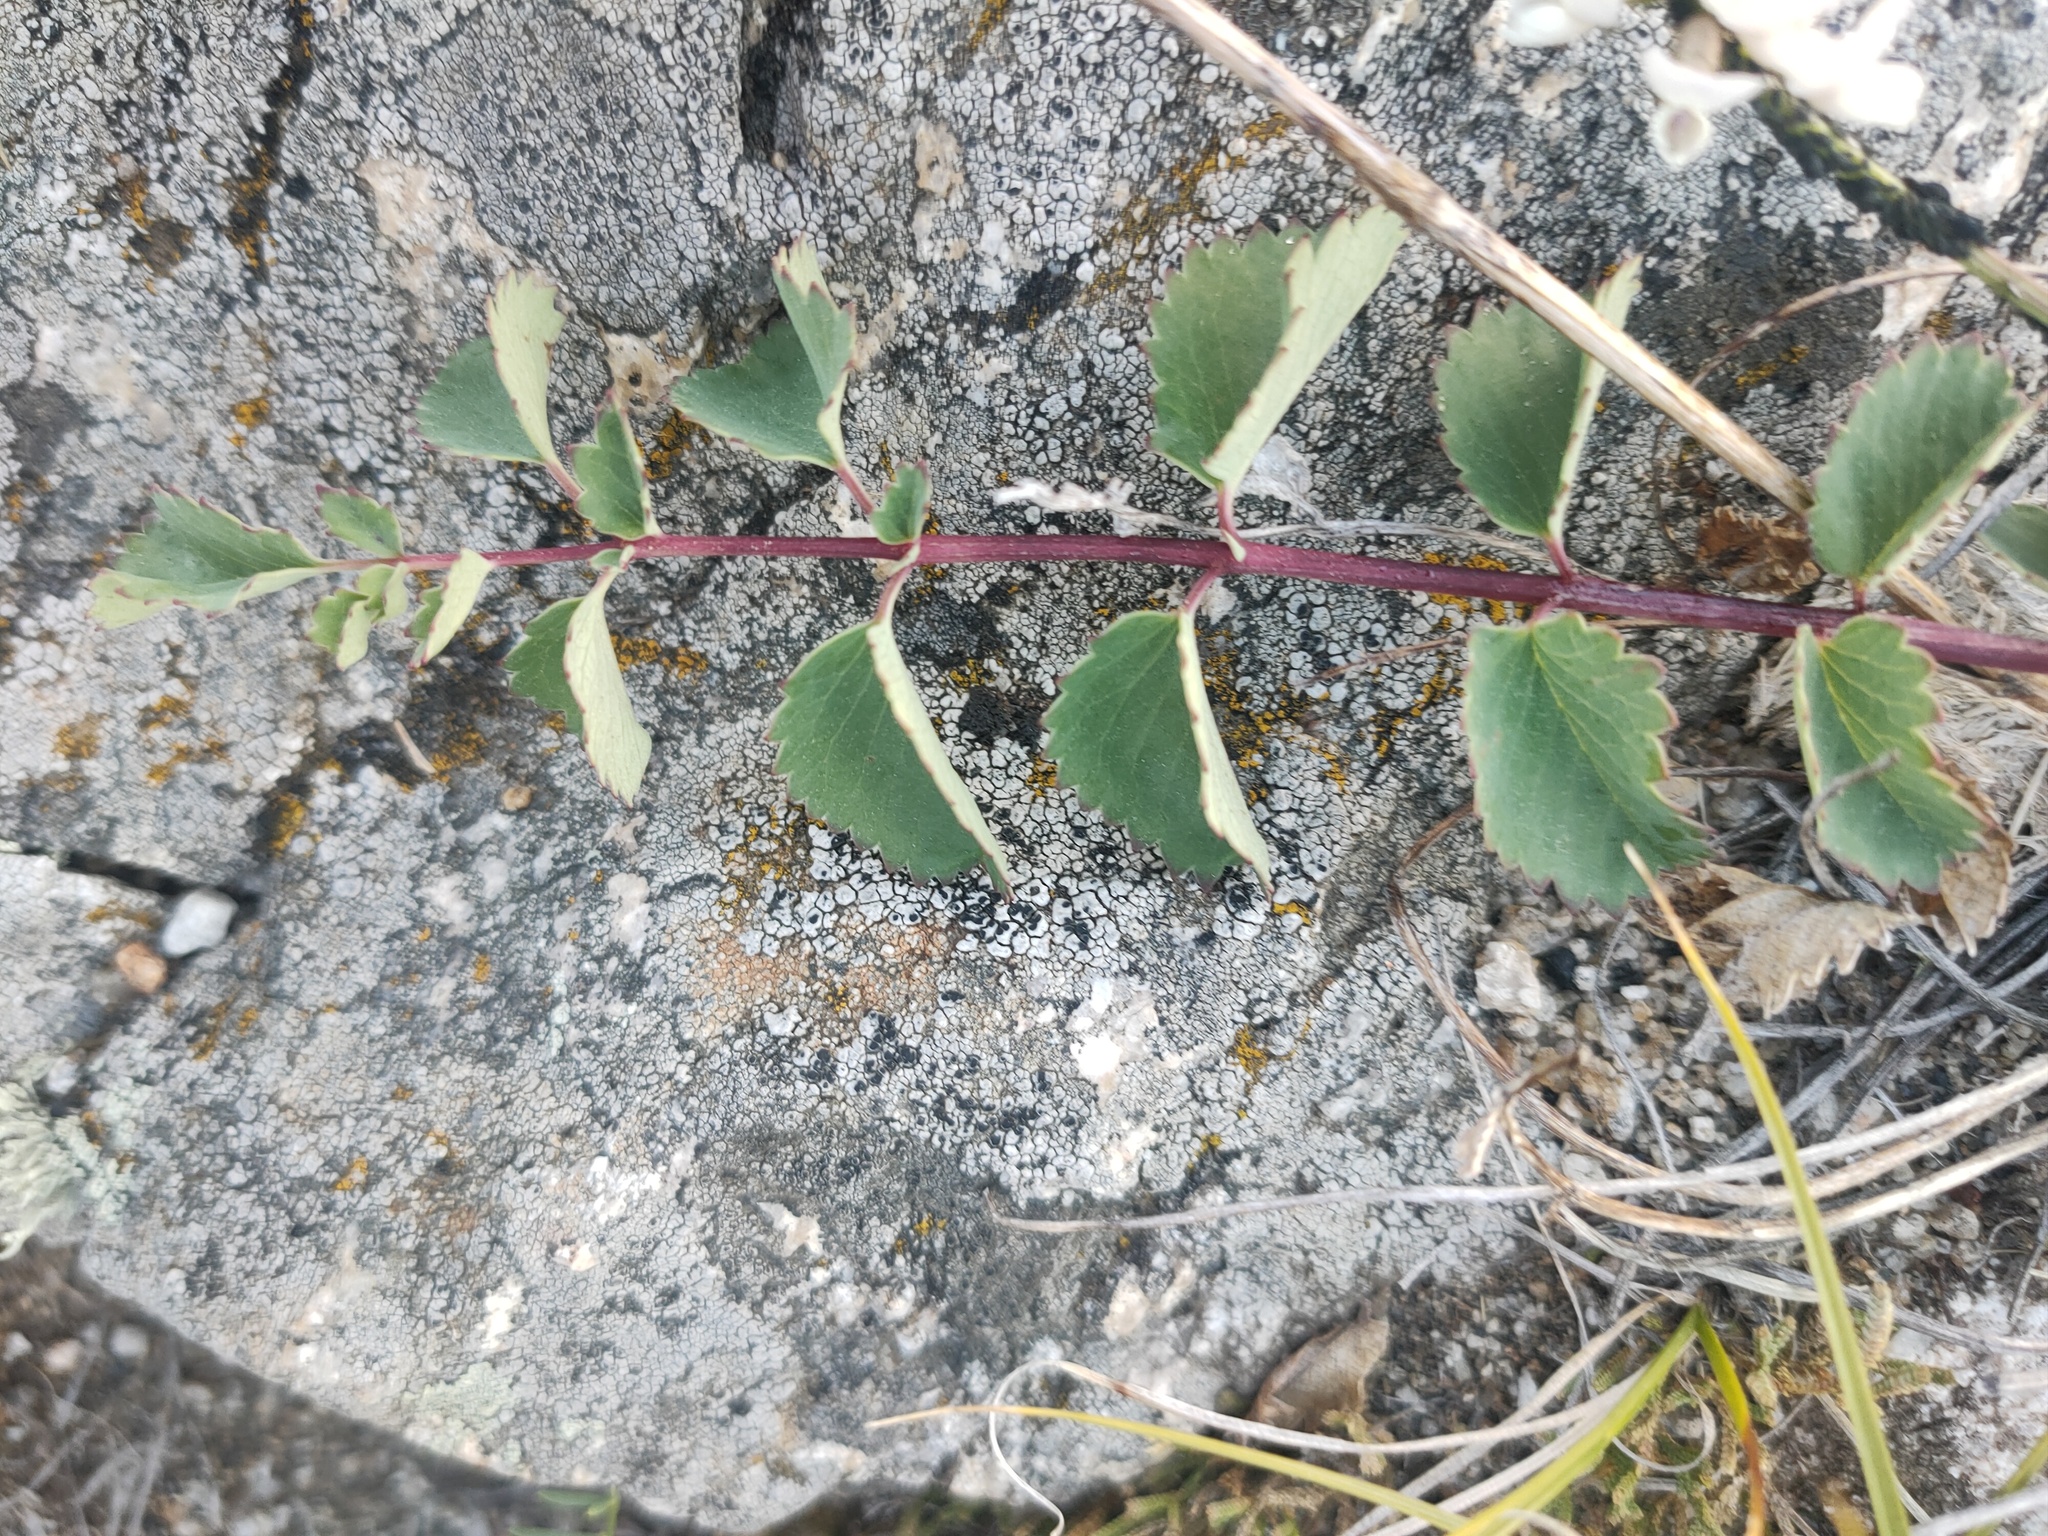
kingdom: Plantae
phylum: Tracheophyta
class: Magnoliopsida
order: Rosales
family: Rosaceae
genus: Sanguisorba
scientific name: Sanguisorba officinalis
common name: Great burnet
